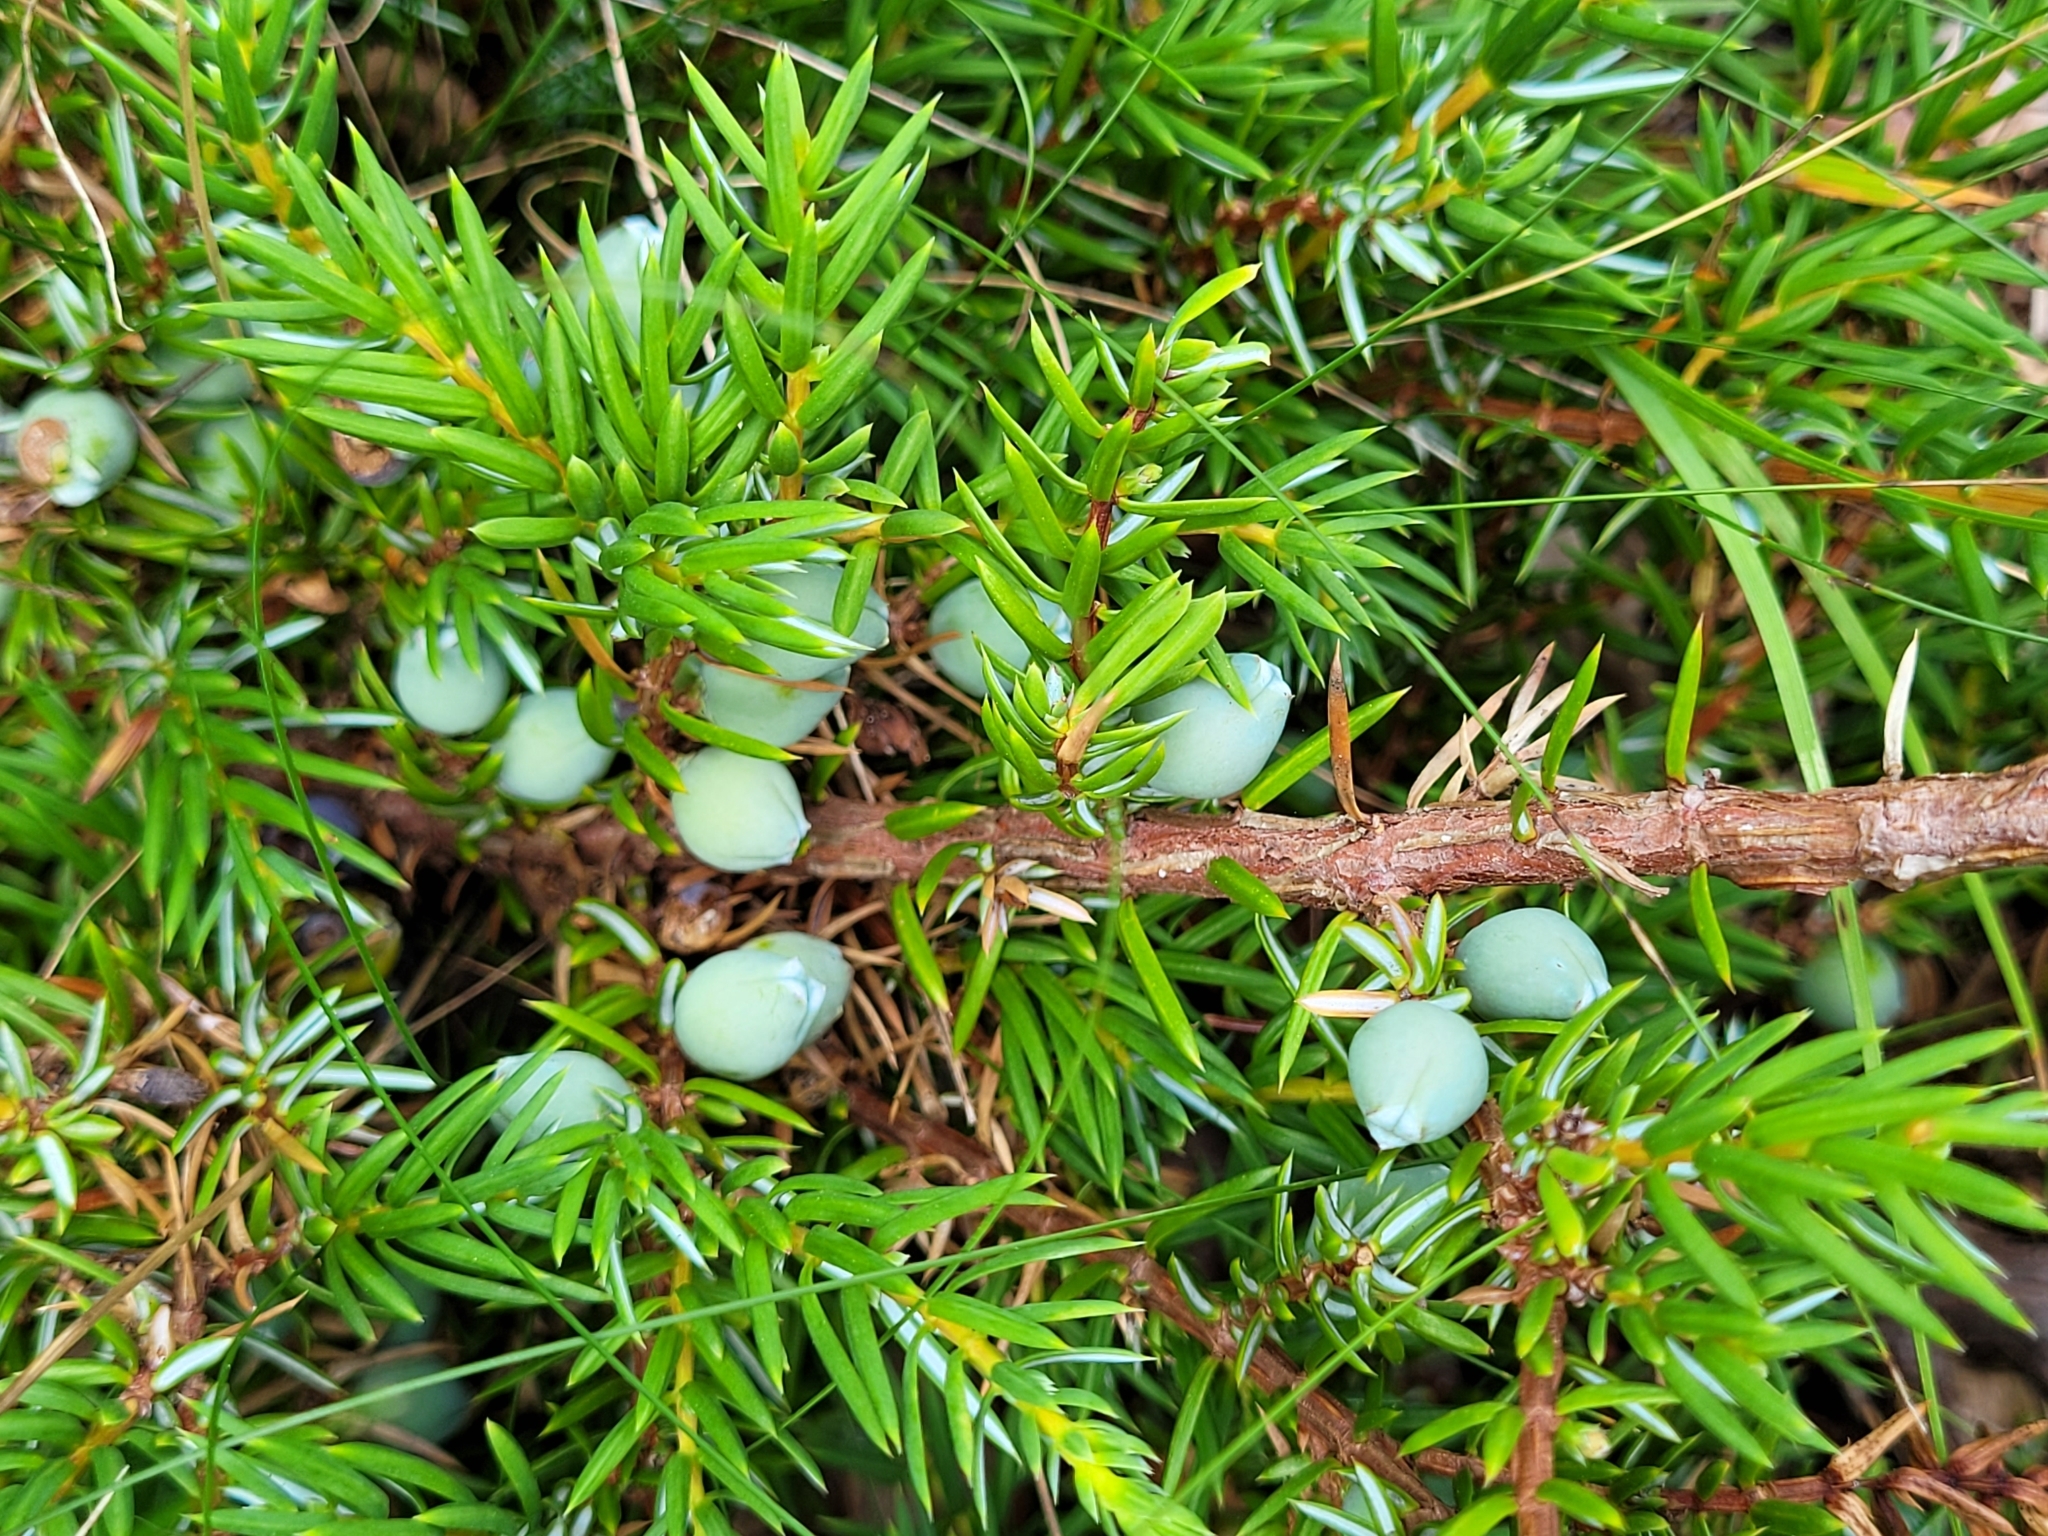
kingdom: Plantae
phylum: Tracheophyta
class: Pinopsida
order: Pinales
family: Cupressaceae
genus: Juniperus
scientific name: Juniperus communis
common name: Common juniper
